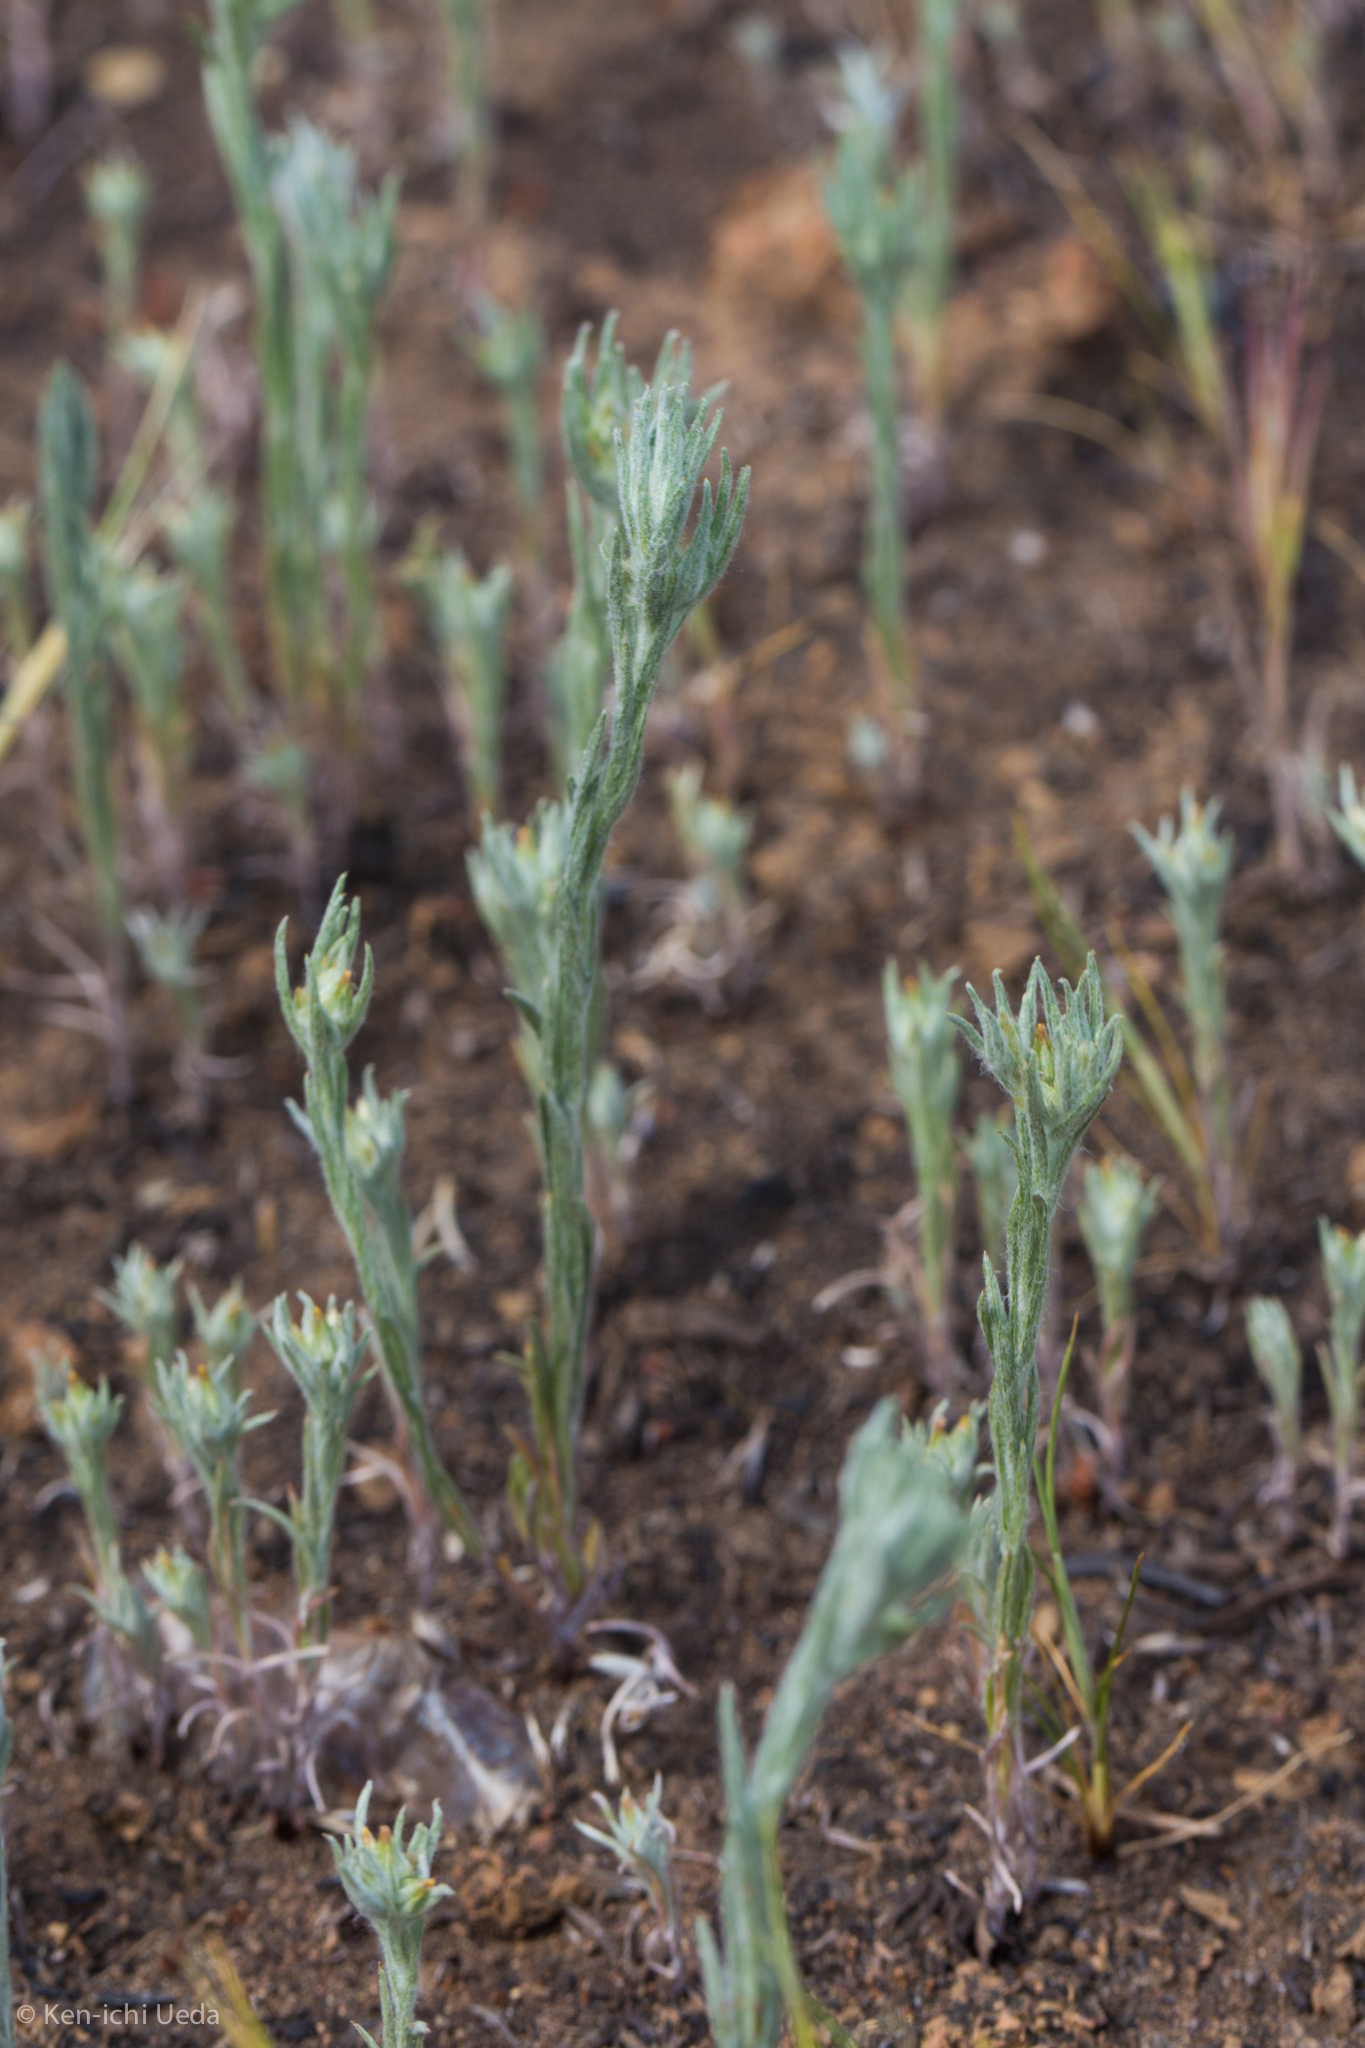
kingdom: Plantae
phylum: Tracheophyta
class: Magnoliopsida
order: Asterales
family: Asteraceae
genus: Logfia
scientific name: Logfia gallica
